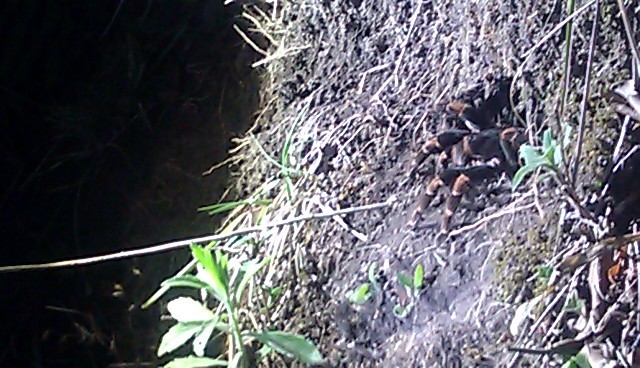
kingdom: Animalia
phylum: Arthropoda
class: Arachnida
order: Araneae
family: Theraphosidae
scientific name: Theraphosidae
